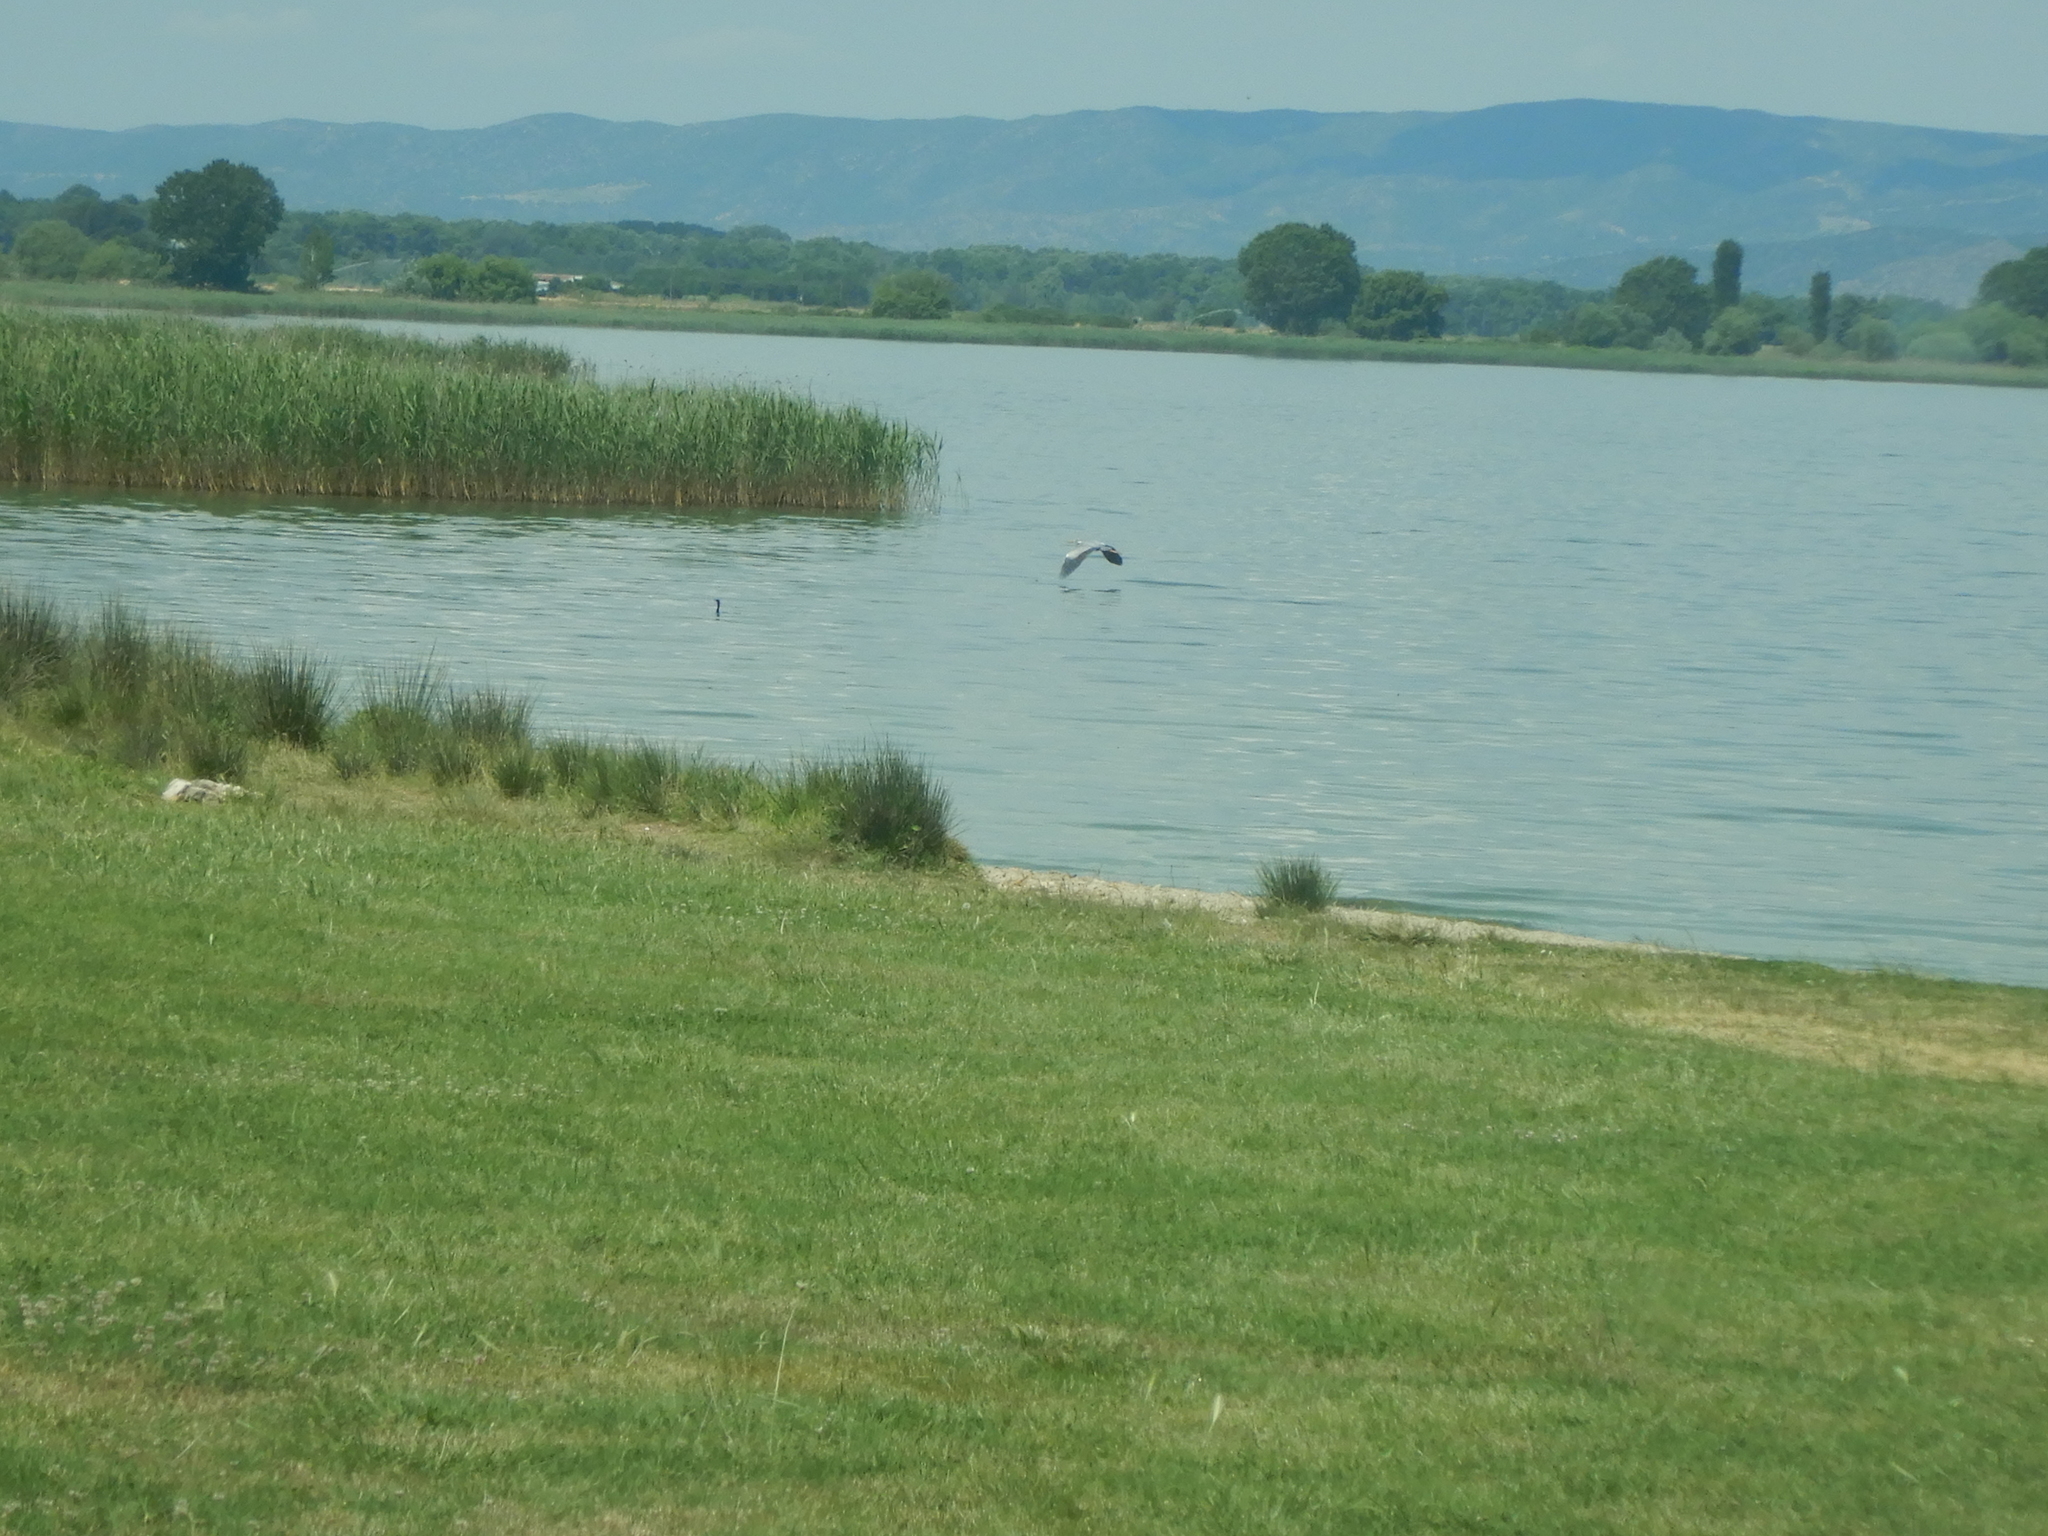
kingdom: Animalia
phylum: Chordata
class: Aves
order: Pelecaniformes
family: Ardeidae
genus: Ardea
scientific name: Ardea cinerea
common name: Grey heron
